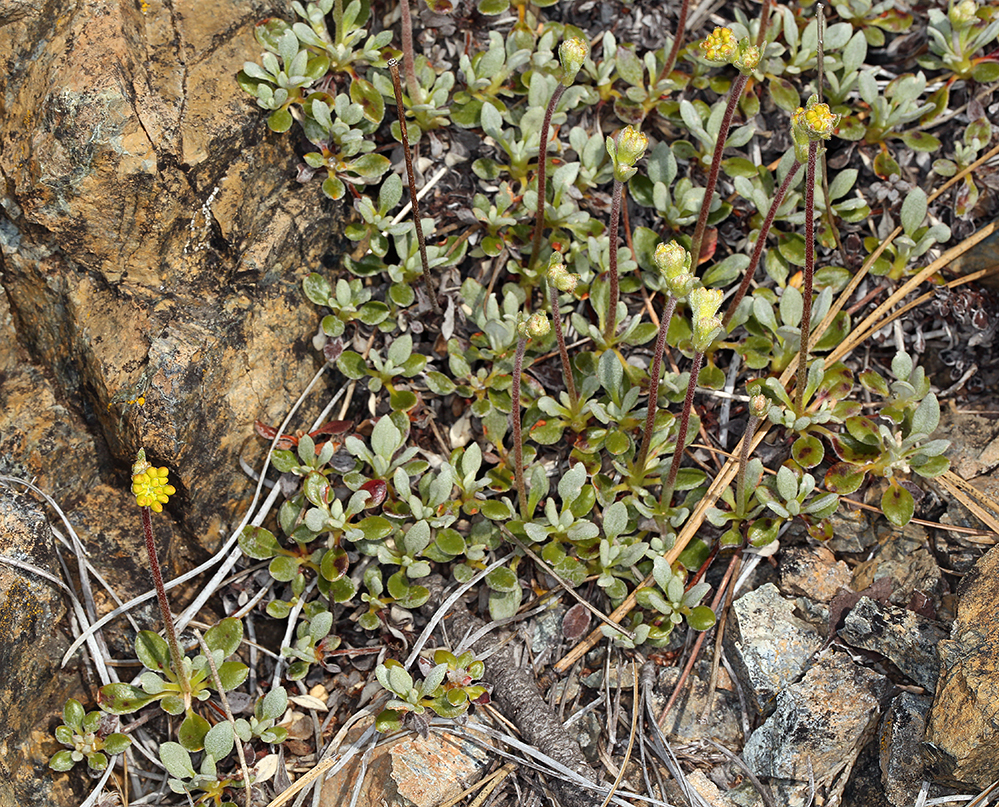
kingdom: Plantae
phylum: Tracheophyta
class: Magnoliopsida
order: Caryophyllales
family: Polygonaceae
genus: Eriogonum
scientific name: Eriogonum libertini
